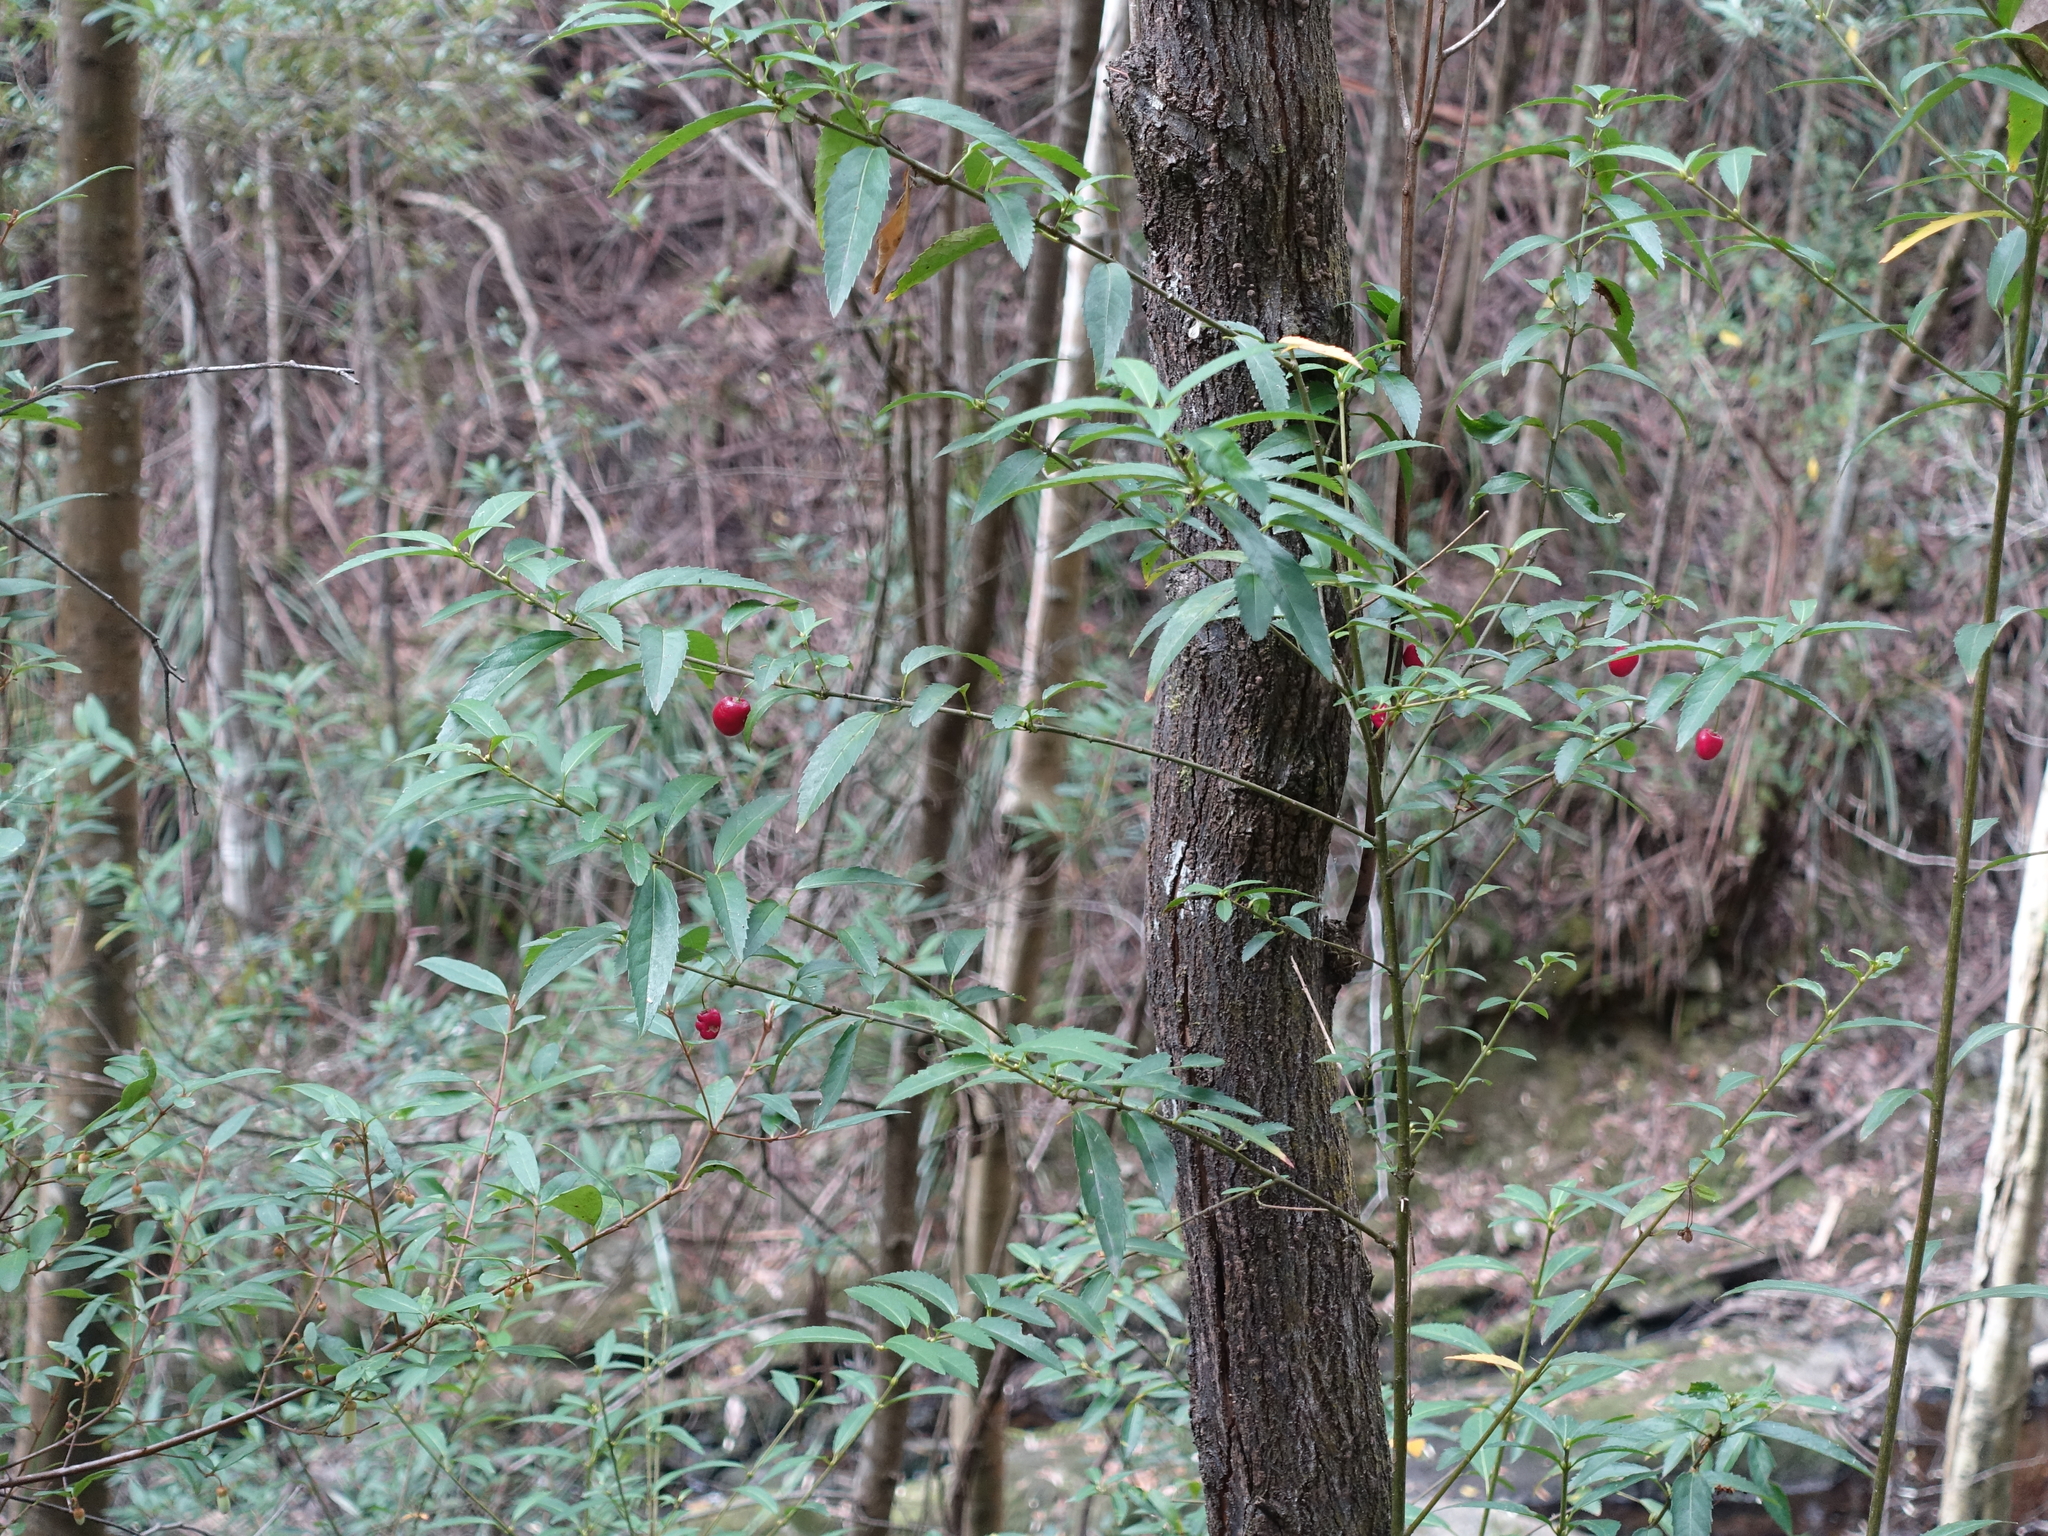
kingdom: Plantae
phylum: Tracheophyta
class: Magnoliopsida
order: Oxalidales
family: Elaeocarpaceae
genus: Aristotelia
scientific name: Aristotelia peduncularis
